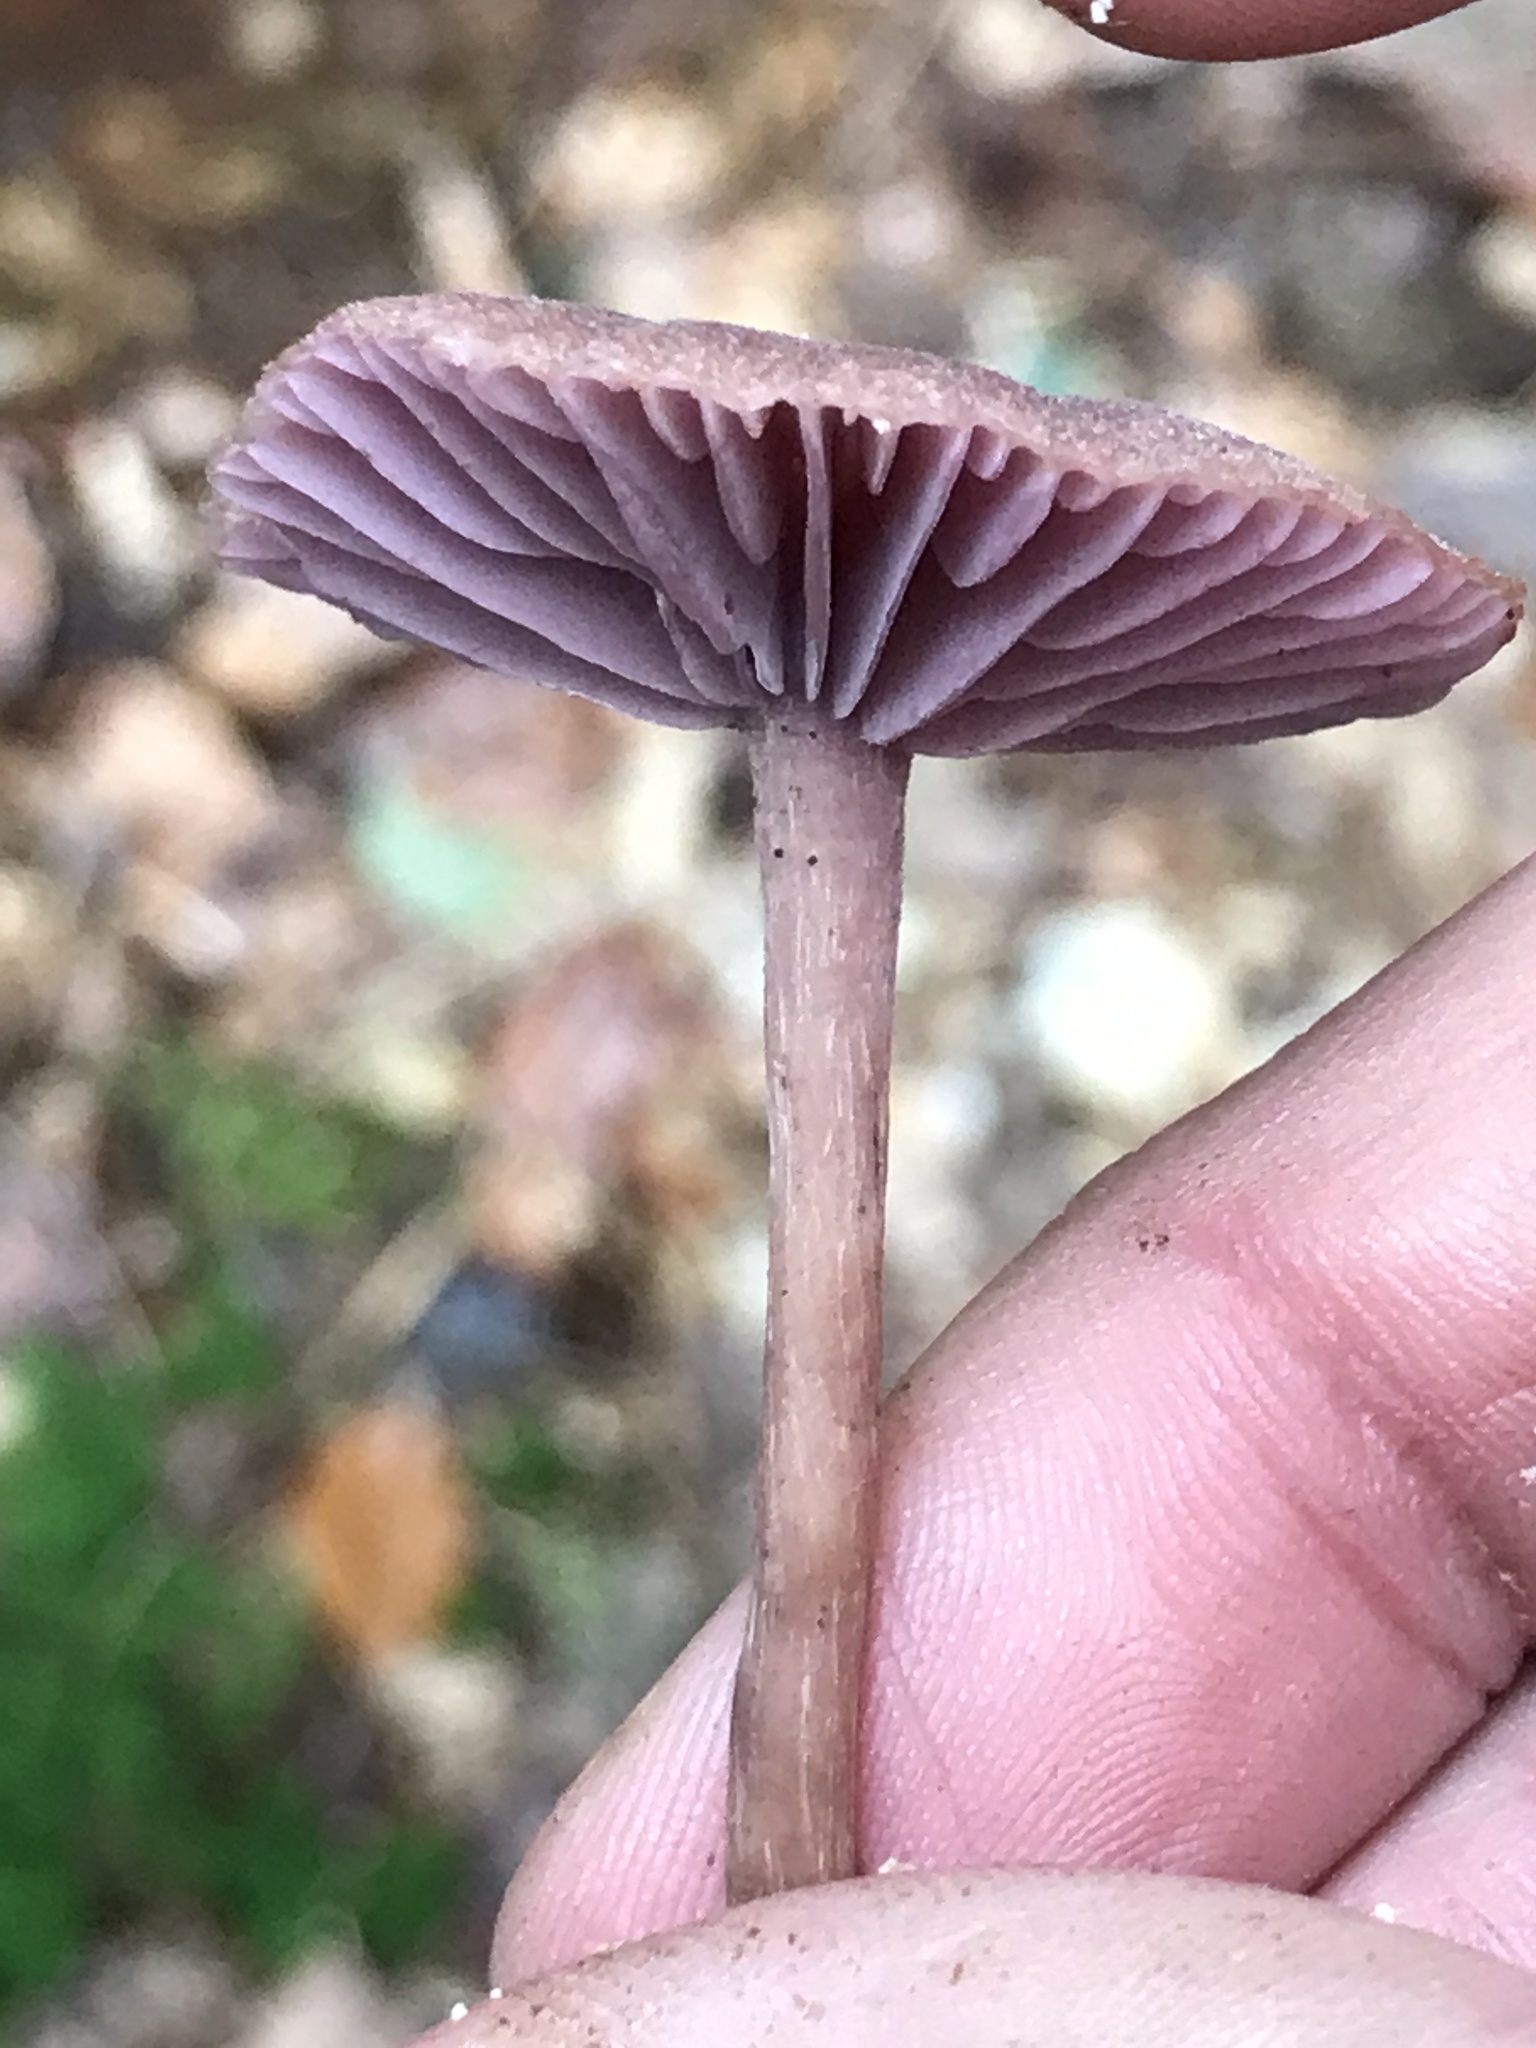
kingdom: Fungi
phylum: Basidiomycota
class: Agaricomycetes
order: Agaricales
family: Hydnangiaceae
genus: Laccaria
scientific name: Laccaria amethystina
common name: Amethyst deceiver
